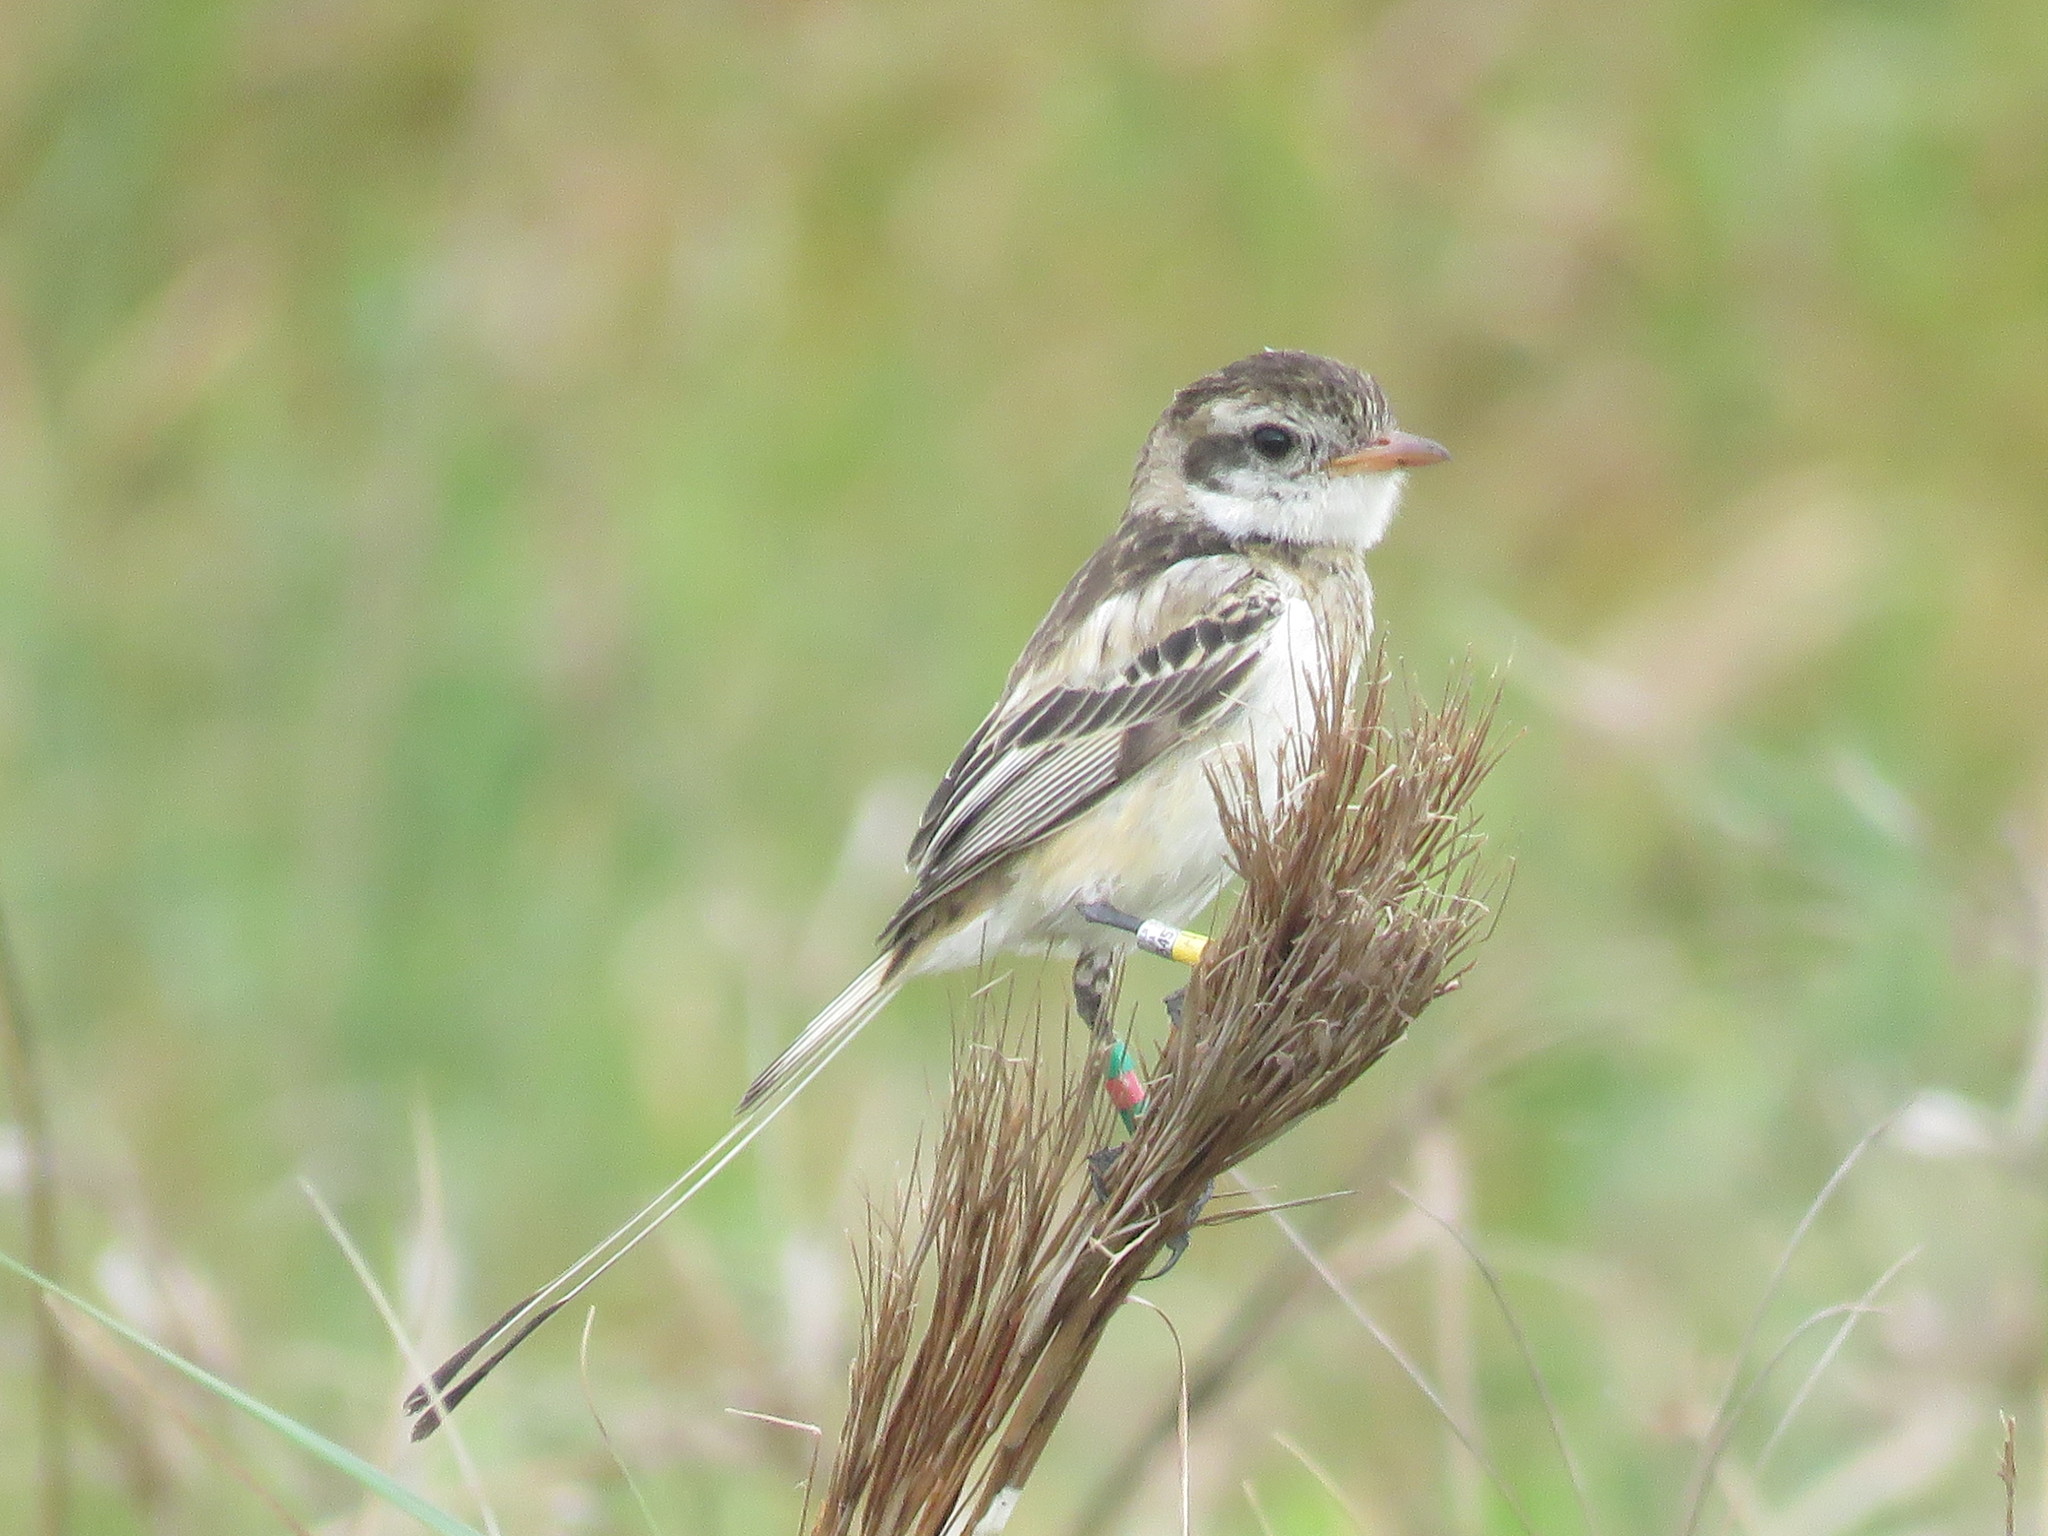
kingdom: Animalia
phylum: Chordata
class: Aves
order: Passeriformes
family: Tyrannidae
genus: Alectrurus
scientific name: Alectrurus risora
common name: Strange-tailed tyrant
